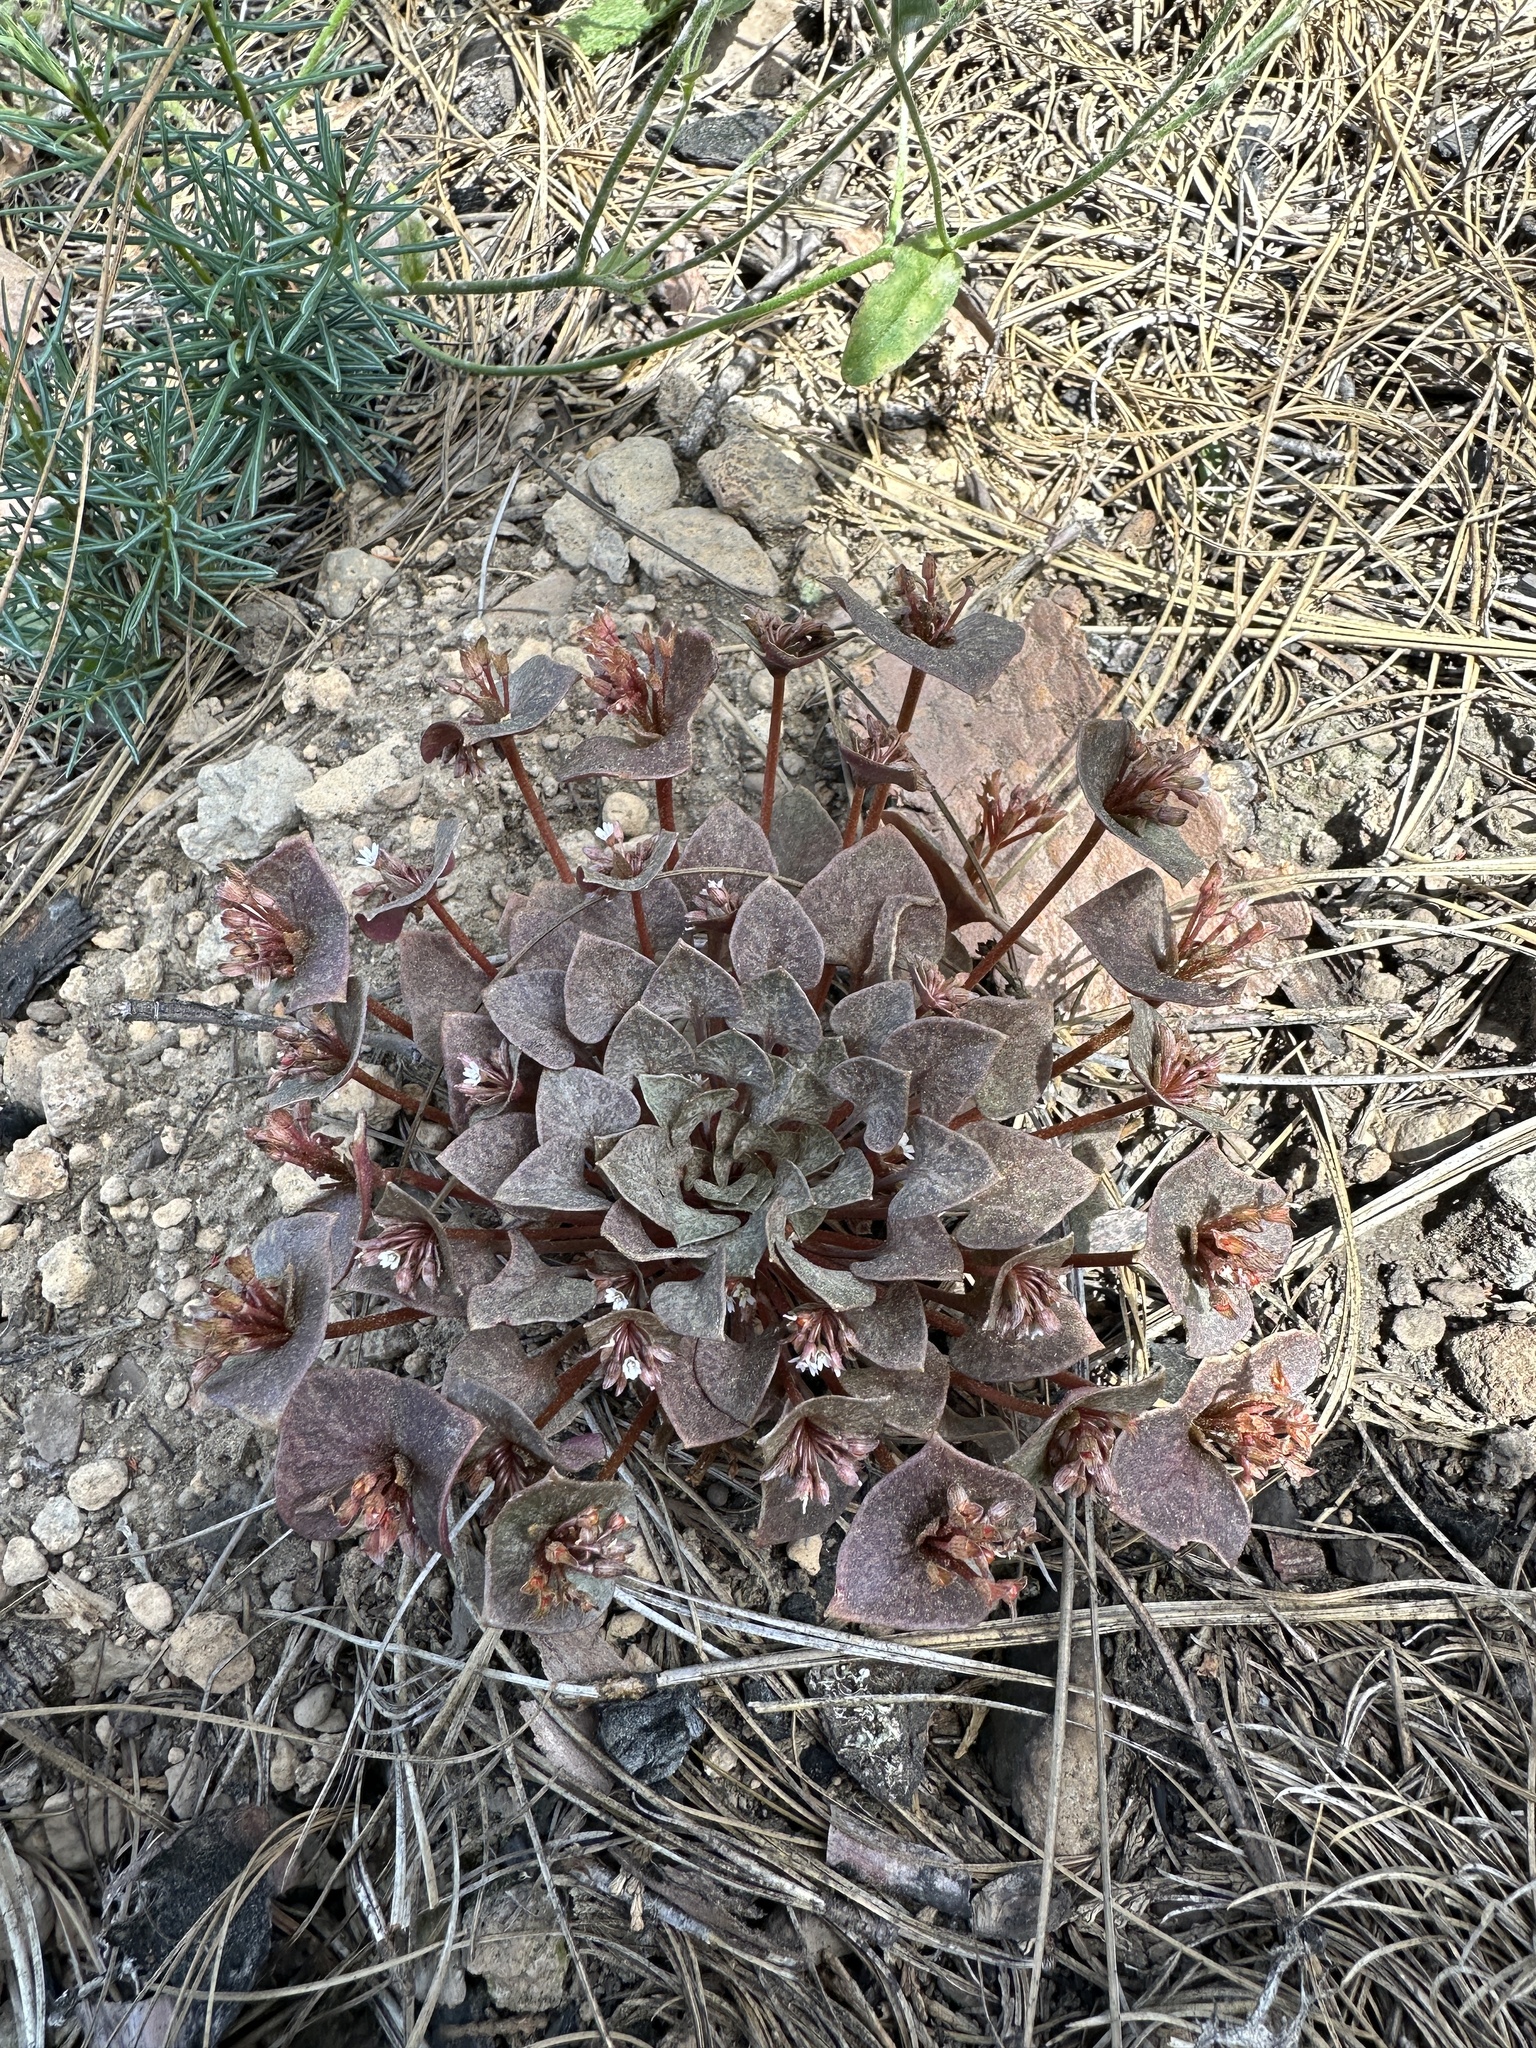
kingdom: Plantae
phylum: Tracheophyta
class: Magnoliopsida
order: Caryophyllales
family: Montiaceae
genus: Claytonia
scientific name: Claytonia rubra
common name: Erubescent miner's-lettuce
